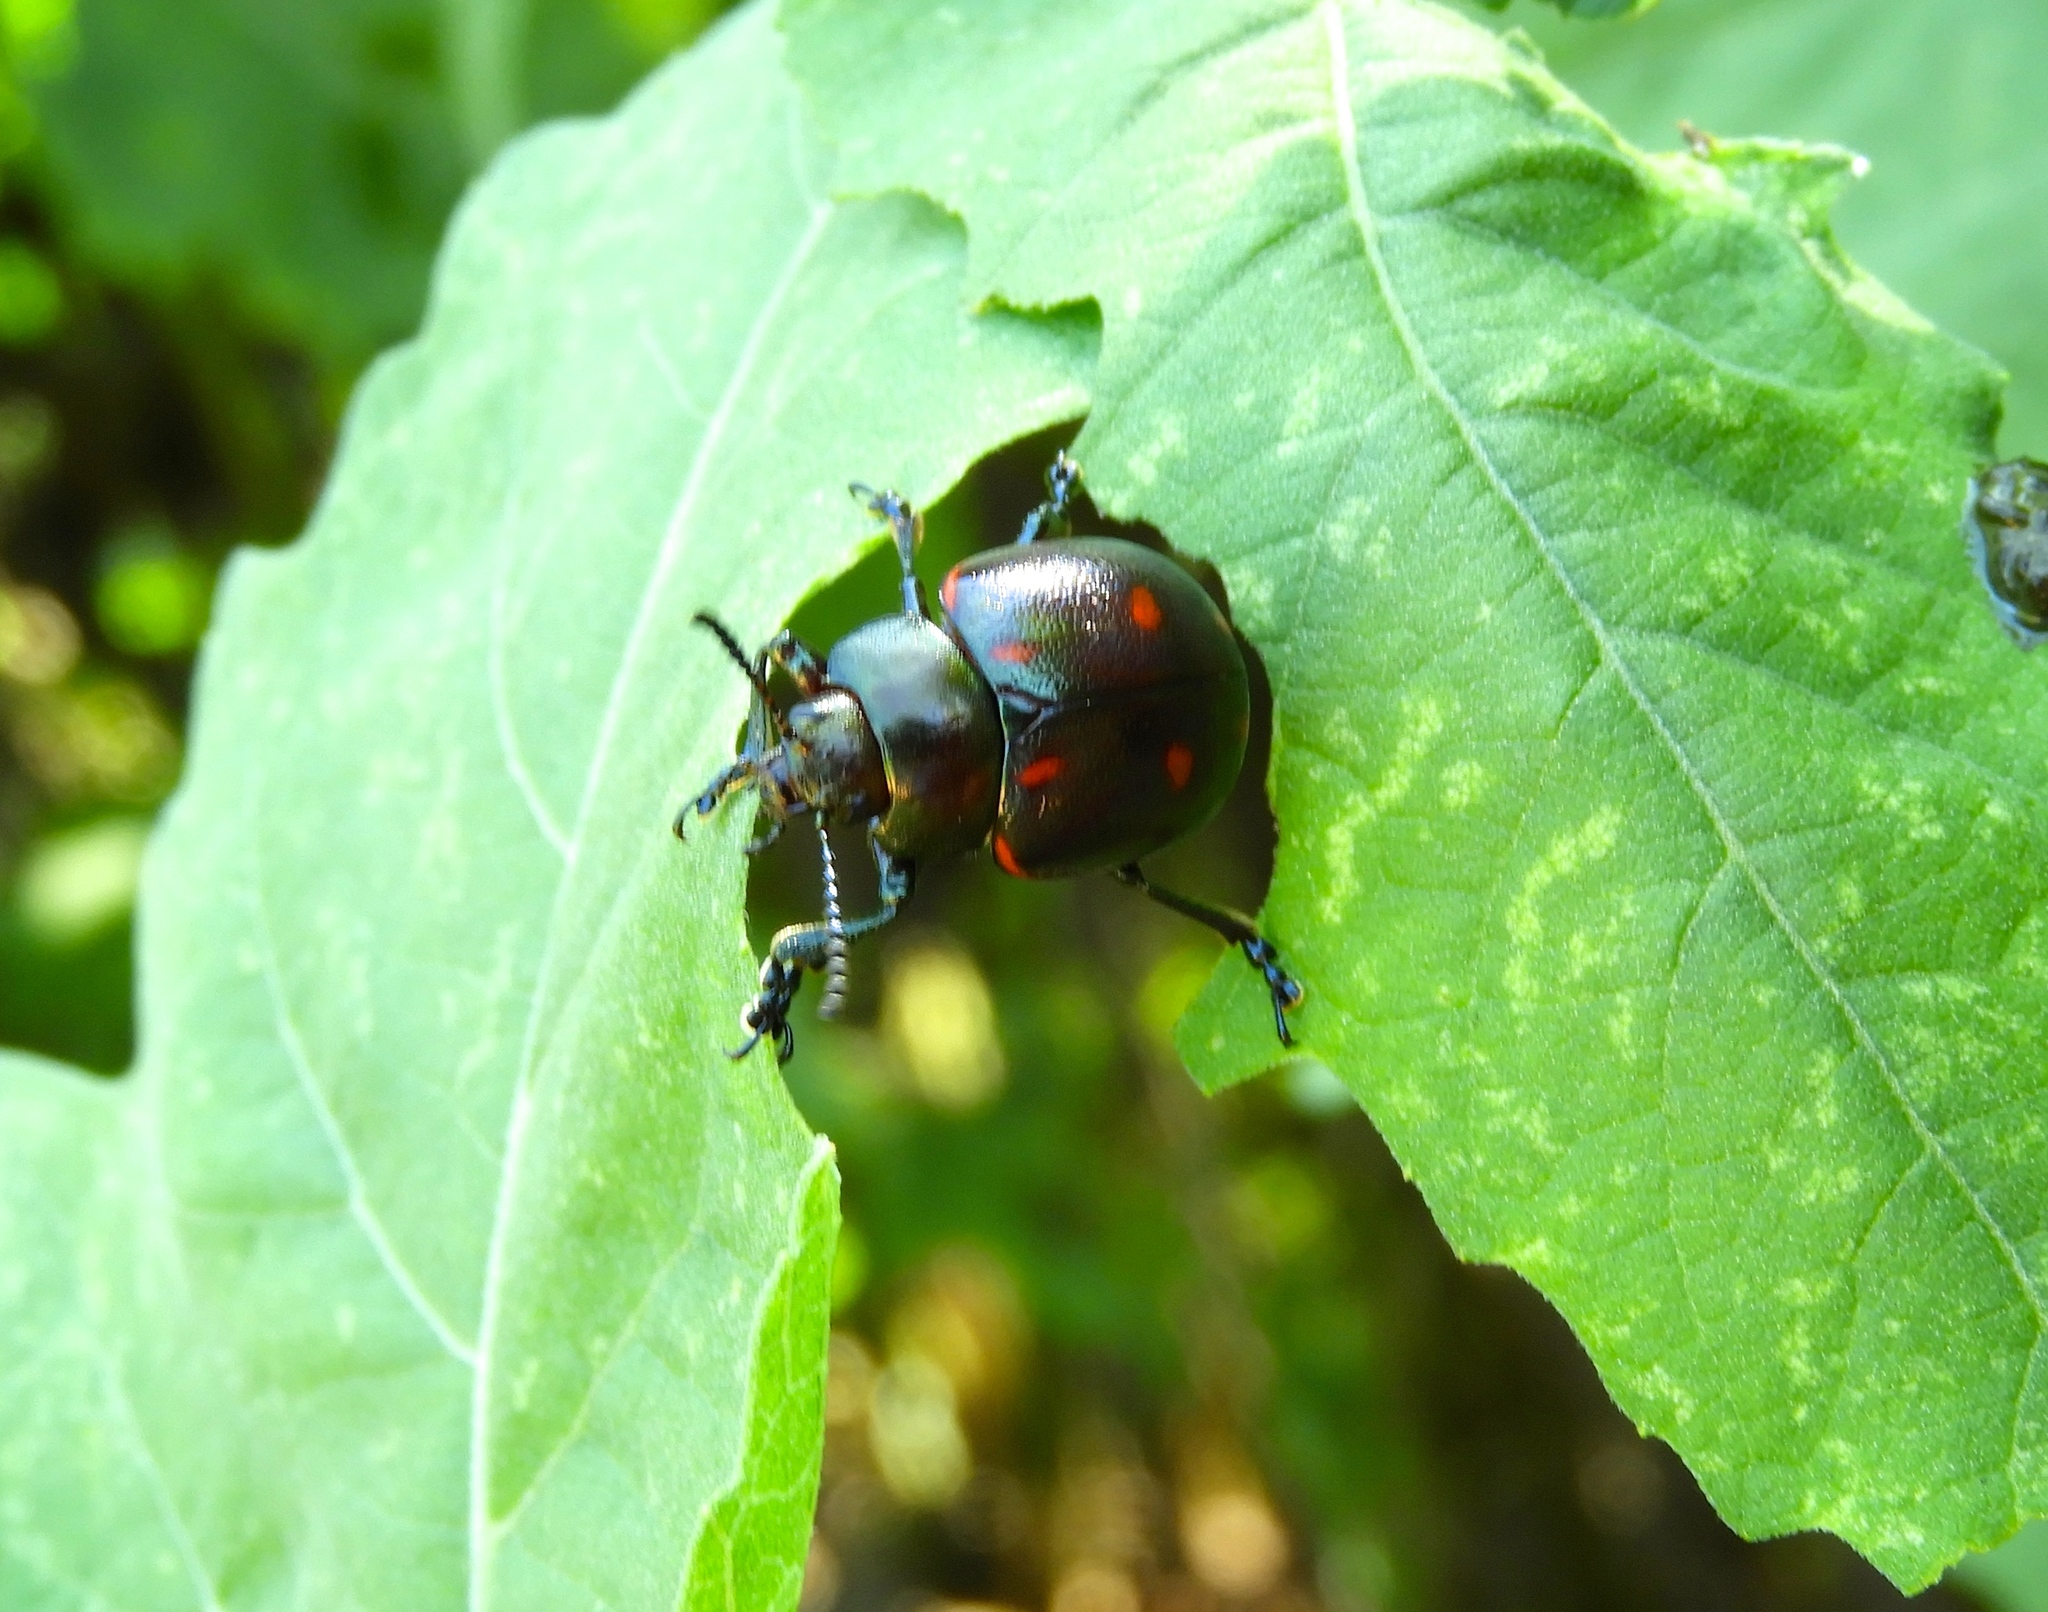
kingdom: Animalia
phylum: Arthropoda
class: Insecta
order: Coleoptera
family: Chrysomelidae
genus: Leptinotarsa
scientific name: Leptinotarsa behrensi
